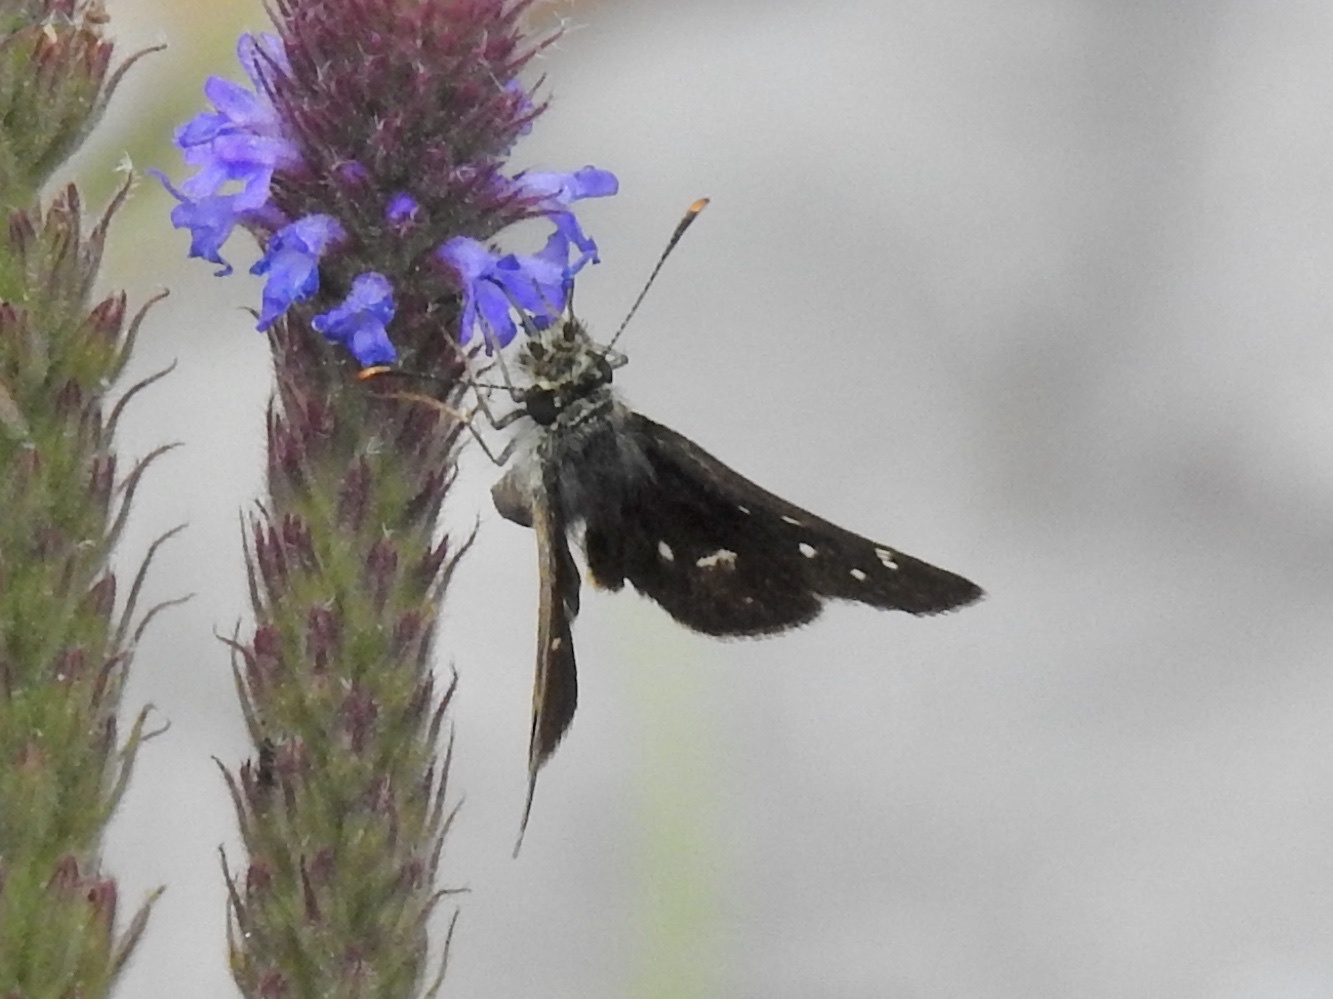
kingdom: Animalia
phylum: Arthropoda
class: Insecta
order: Lepidoptera
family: Hesperiidae
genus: Piruna
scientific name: Piruna polingii
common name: Four-spotted skipperling
